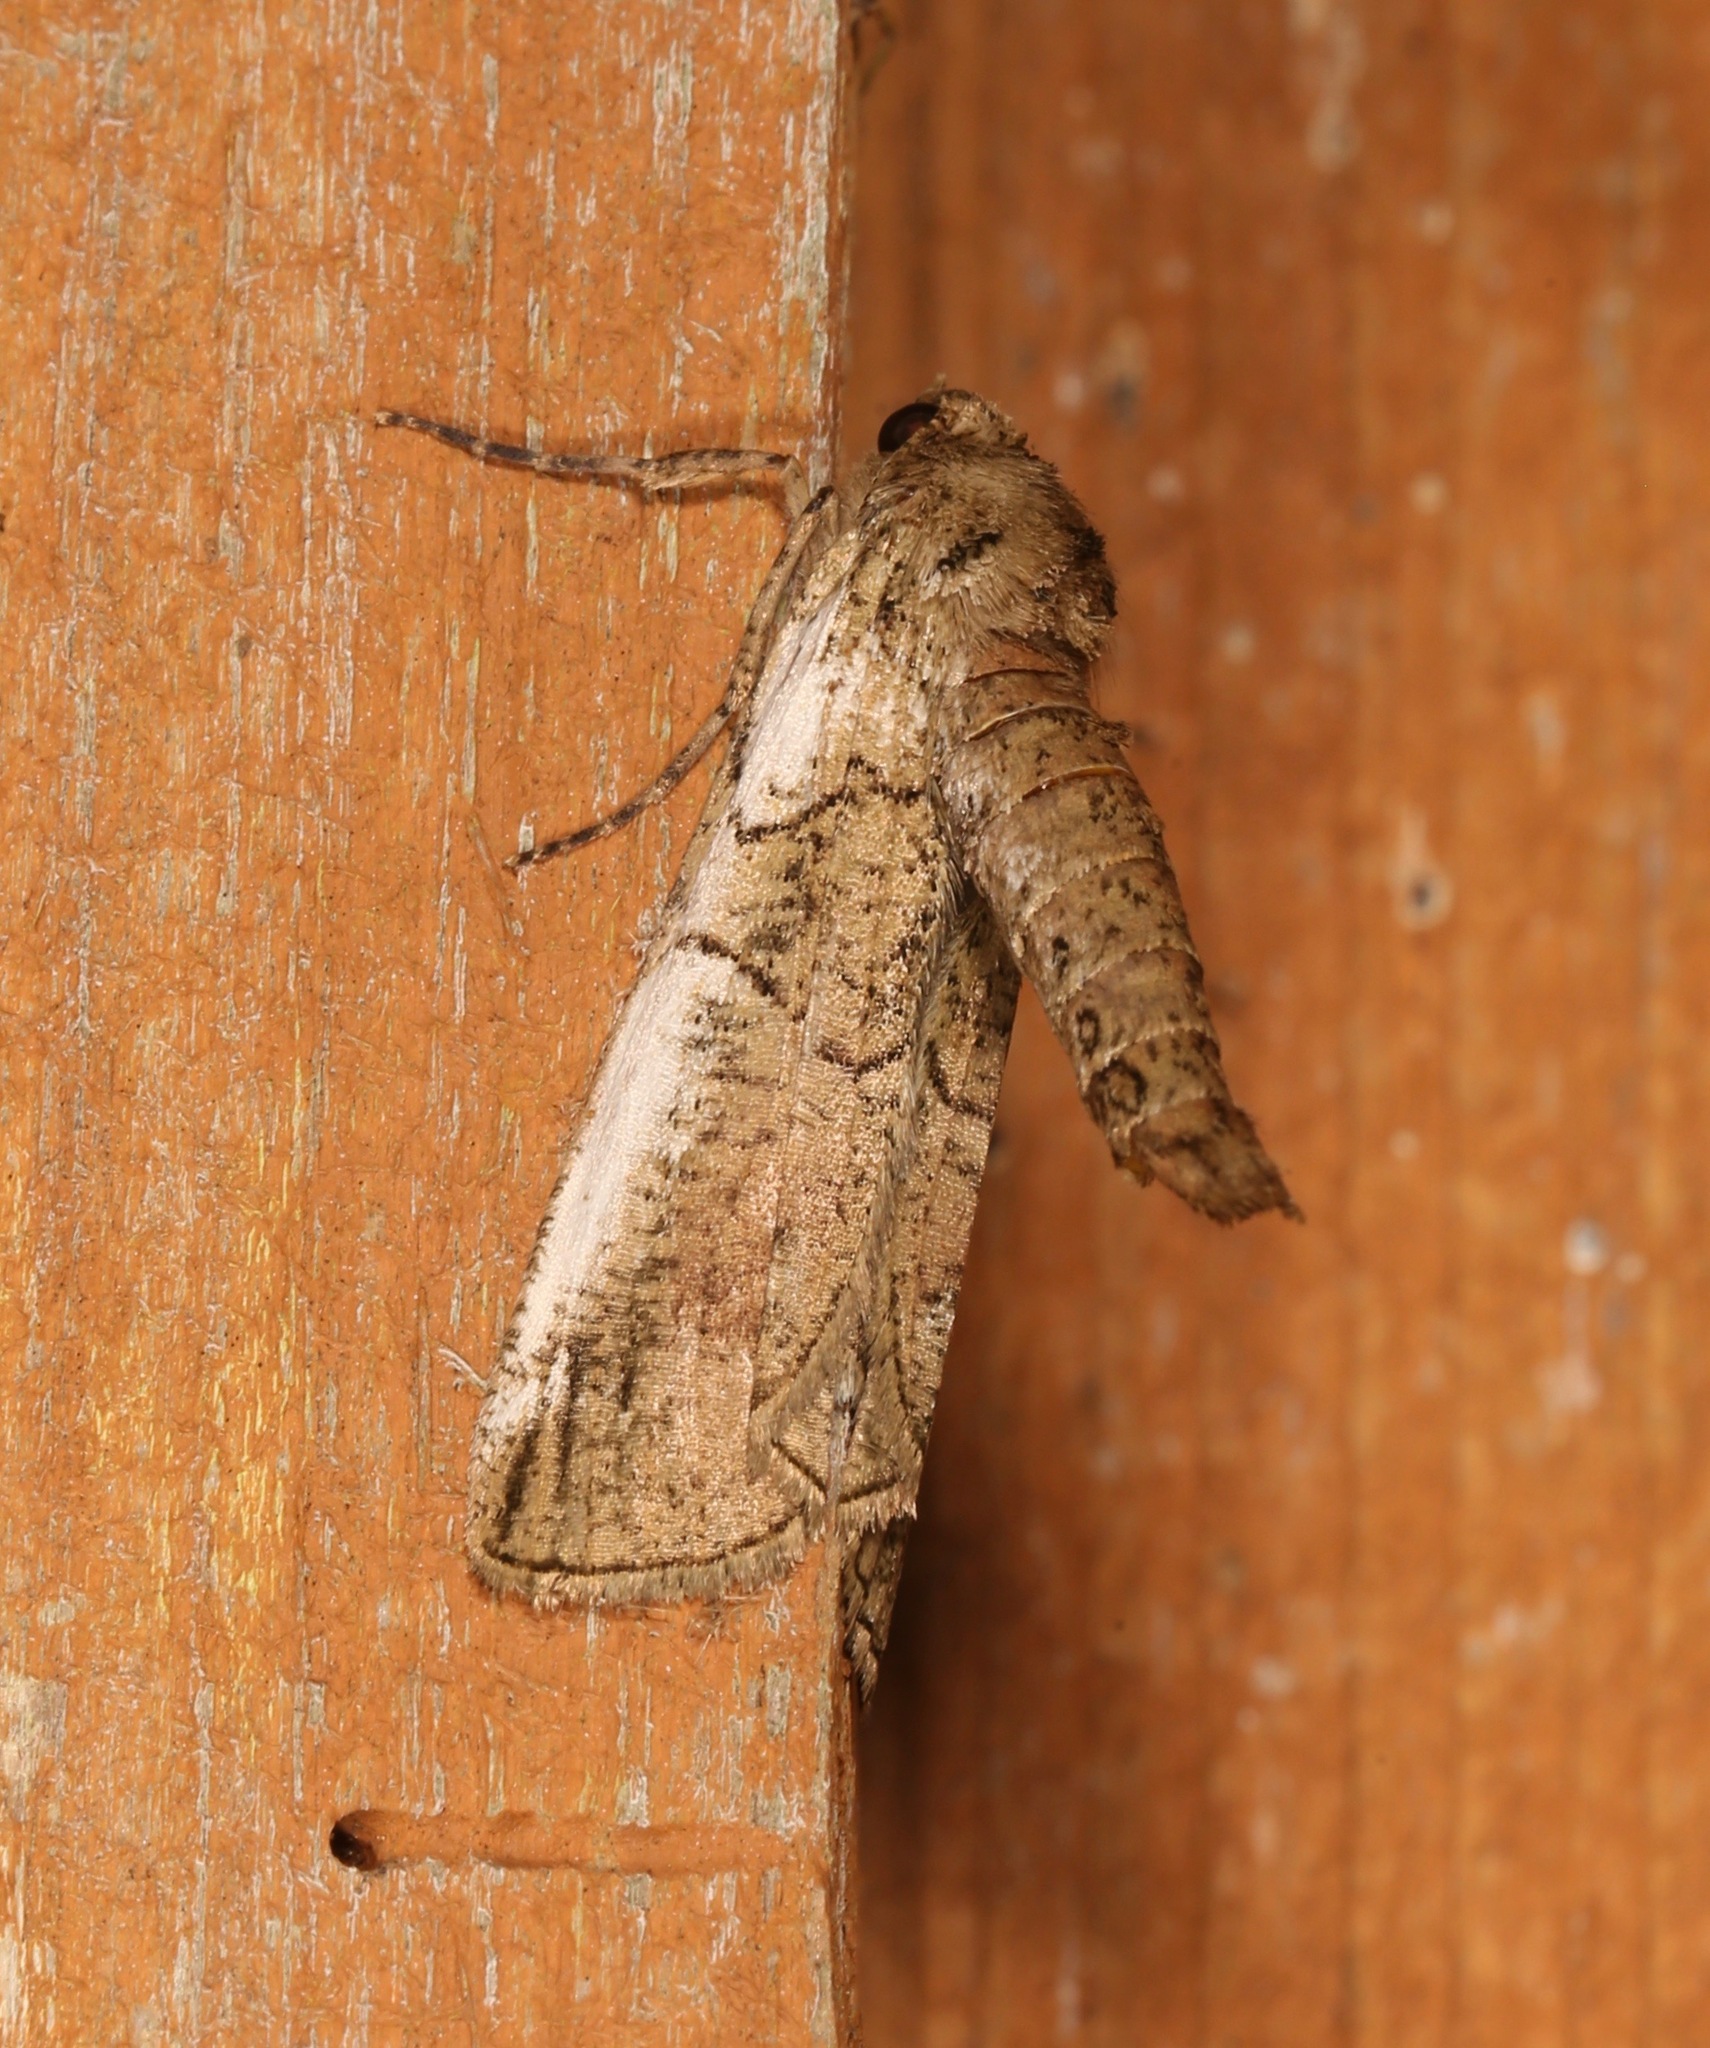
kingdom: Animalia
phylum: Arthropoda
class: Insecta
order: Lepidoptera
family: Geometridae
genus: Ceratonyx
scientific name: Ceratonyx satanaria
